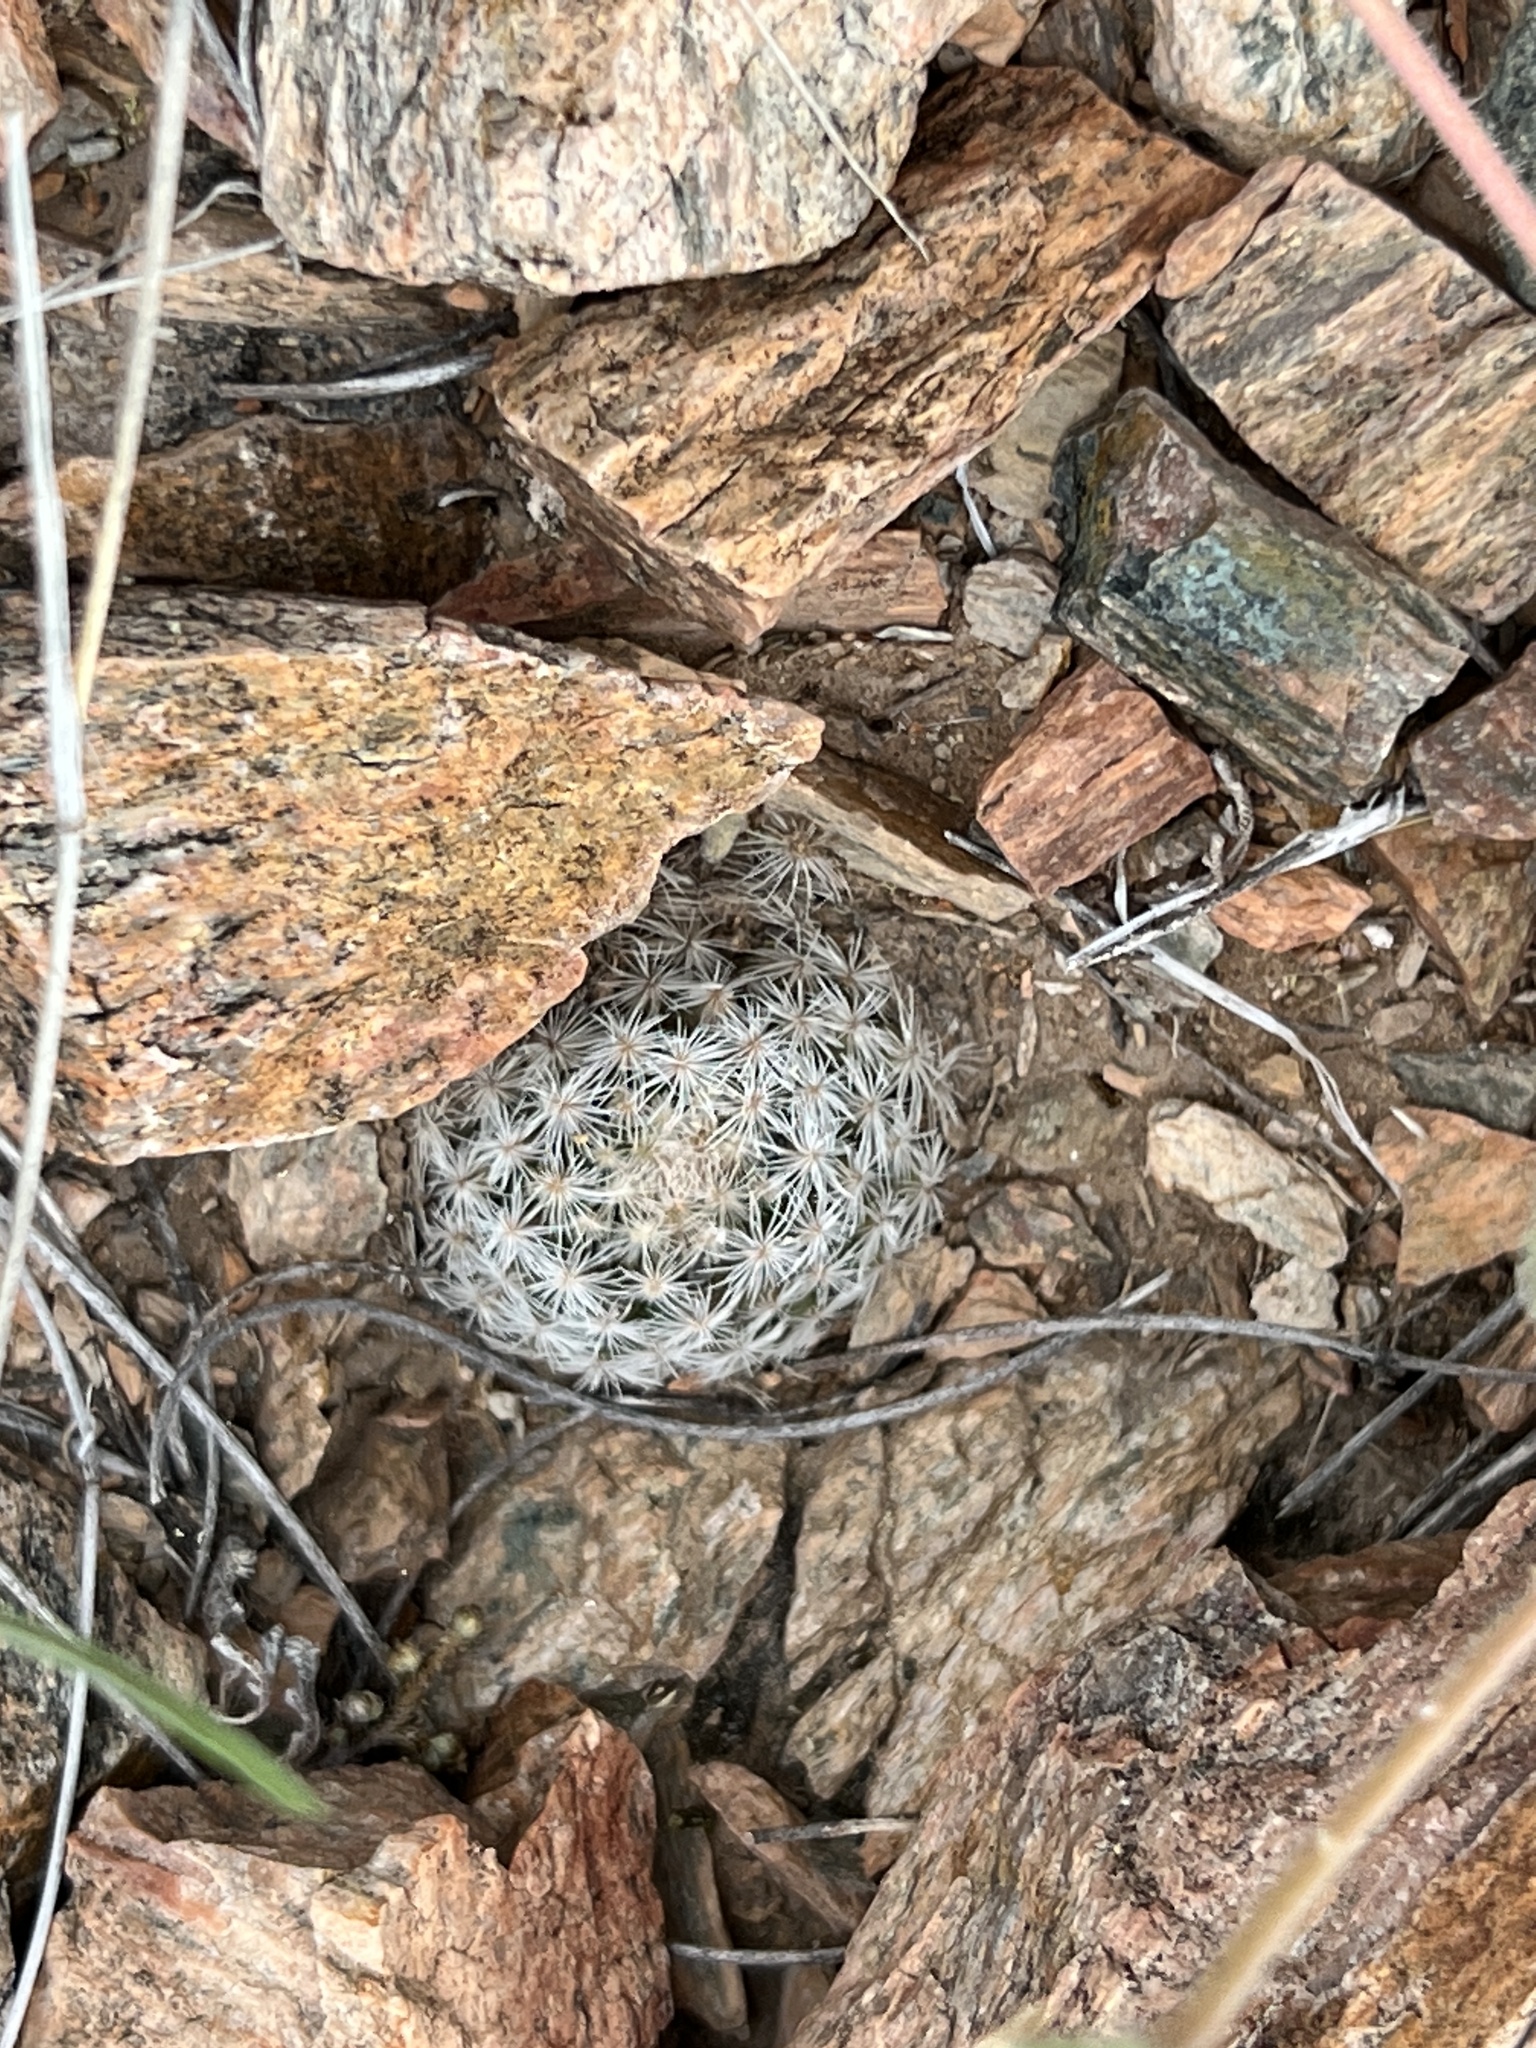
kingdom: Plantae
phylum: Tracheophyta
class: Magnoliopsida
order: Caryophyllales
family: Cactaceae
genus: Mammillaria
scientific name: Mammillaria lasiacantha
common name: Lace-spine nipple cactus
